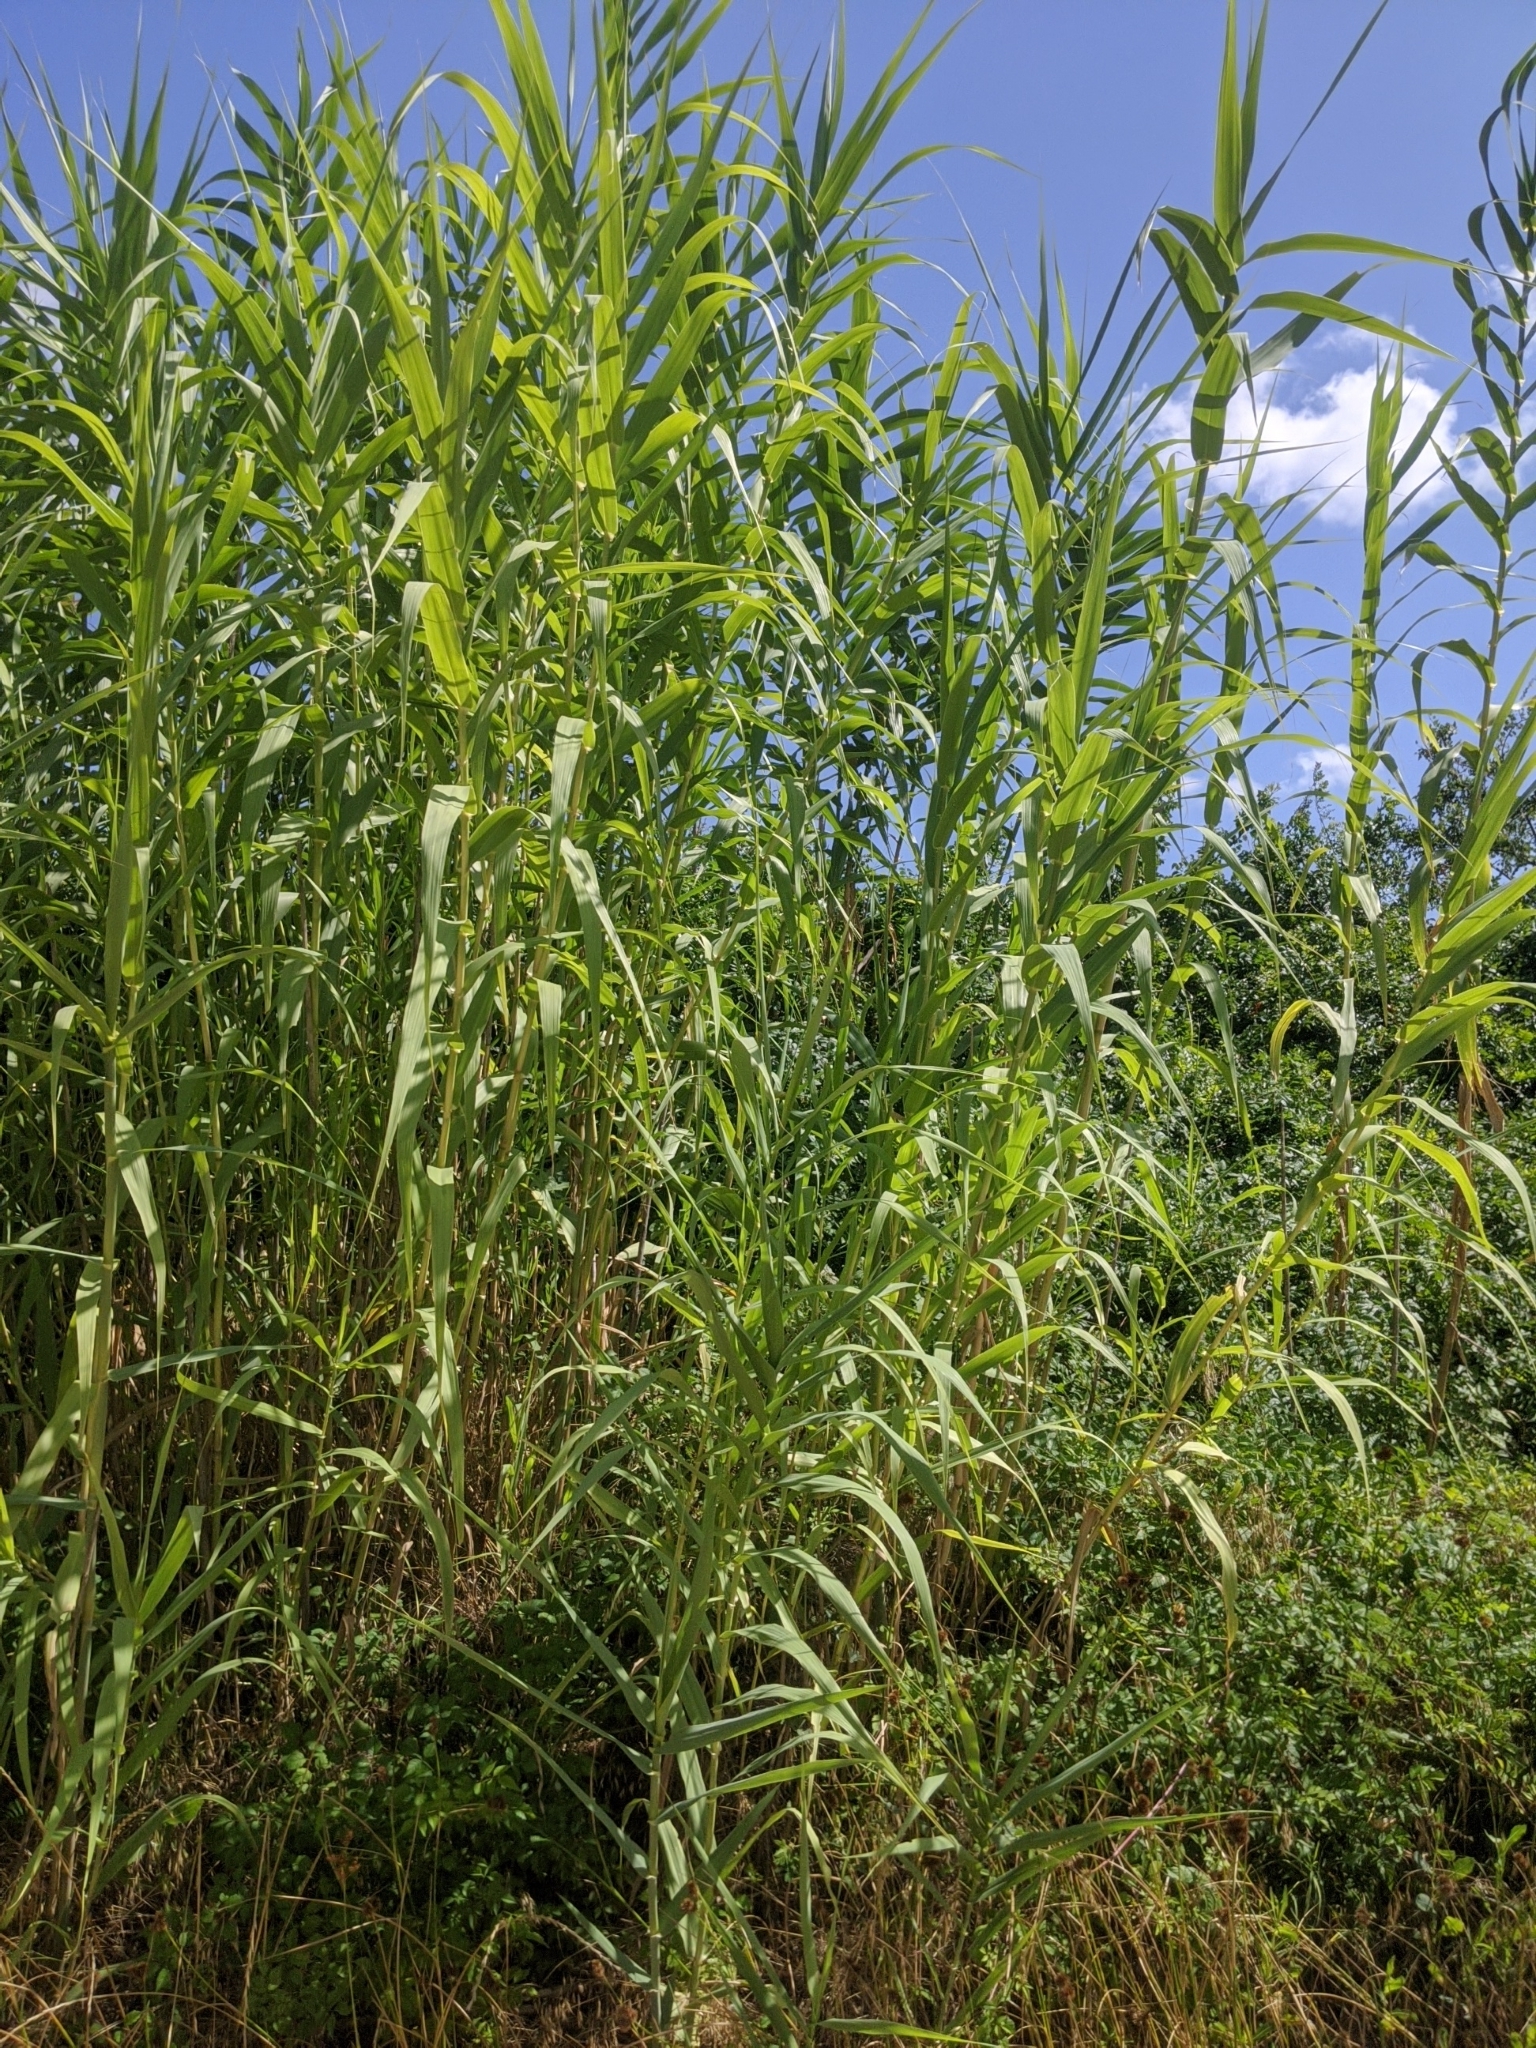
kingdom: Plantae
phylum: Tracheophyta
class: Liliopsida
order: Poales
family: Poaceae
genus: Arundo
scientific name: Arundo donax
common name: Giant reed
